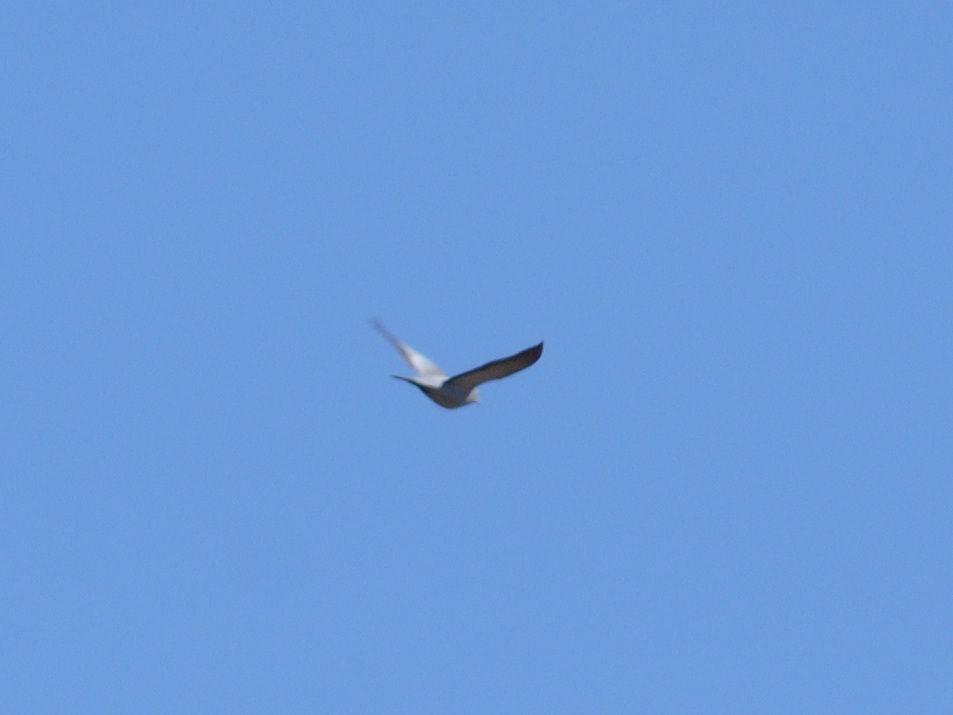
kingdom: Animalia
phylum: Chordata
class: Aves
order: Columbiformes
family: Columbidae
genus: Columba
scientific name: Columba oenas
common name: Stock dove
